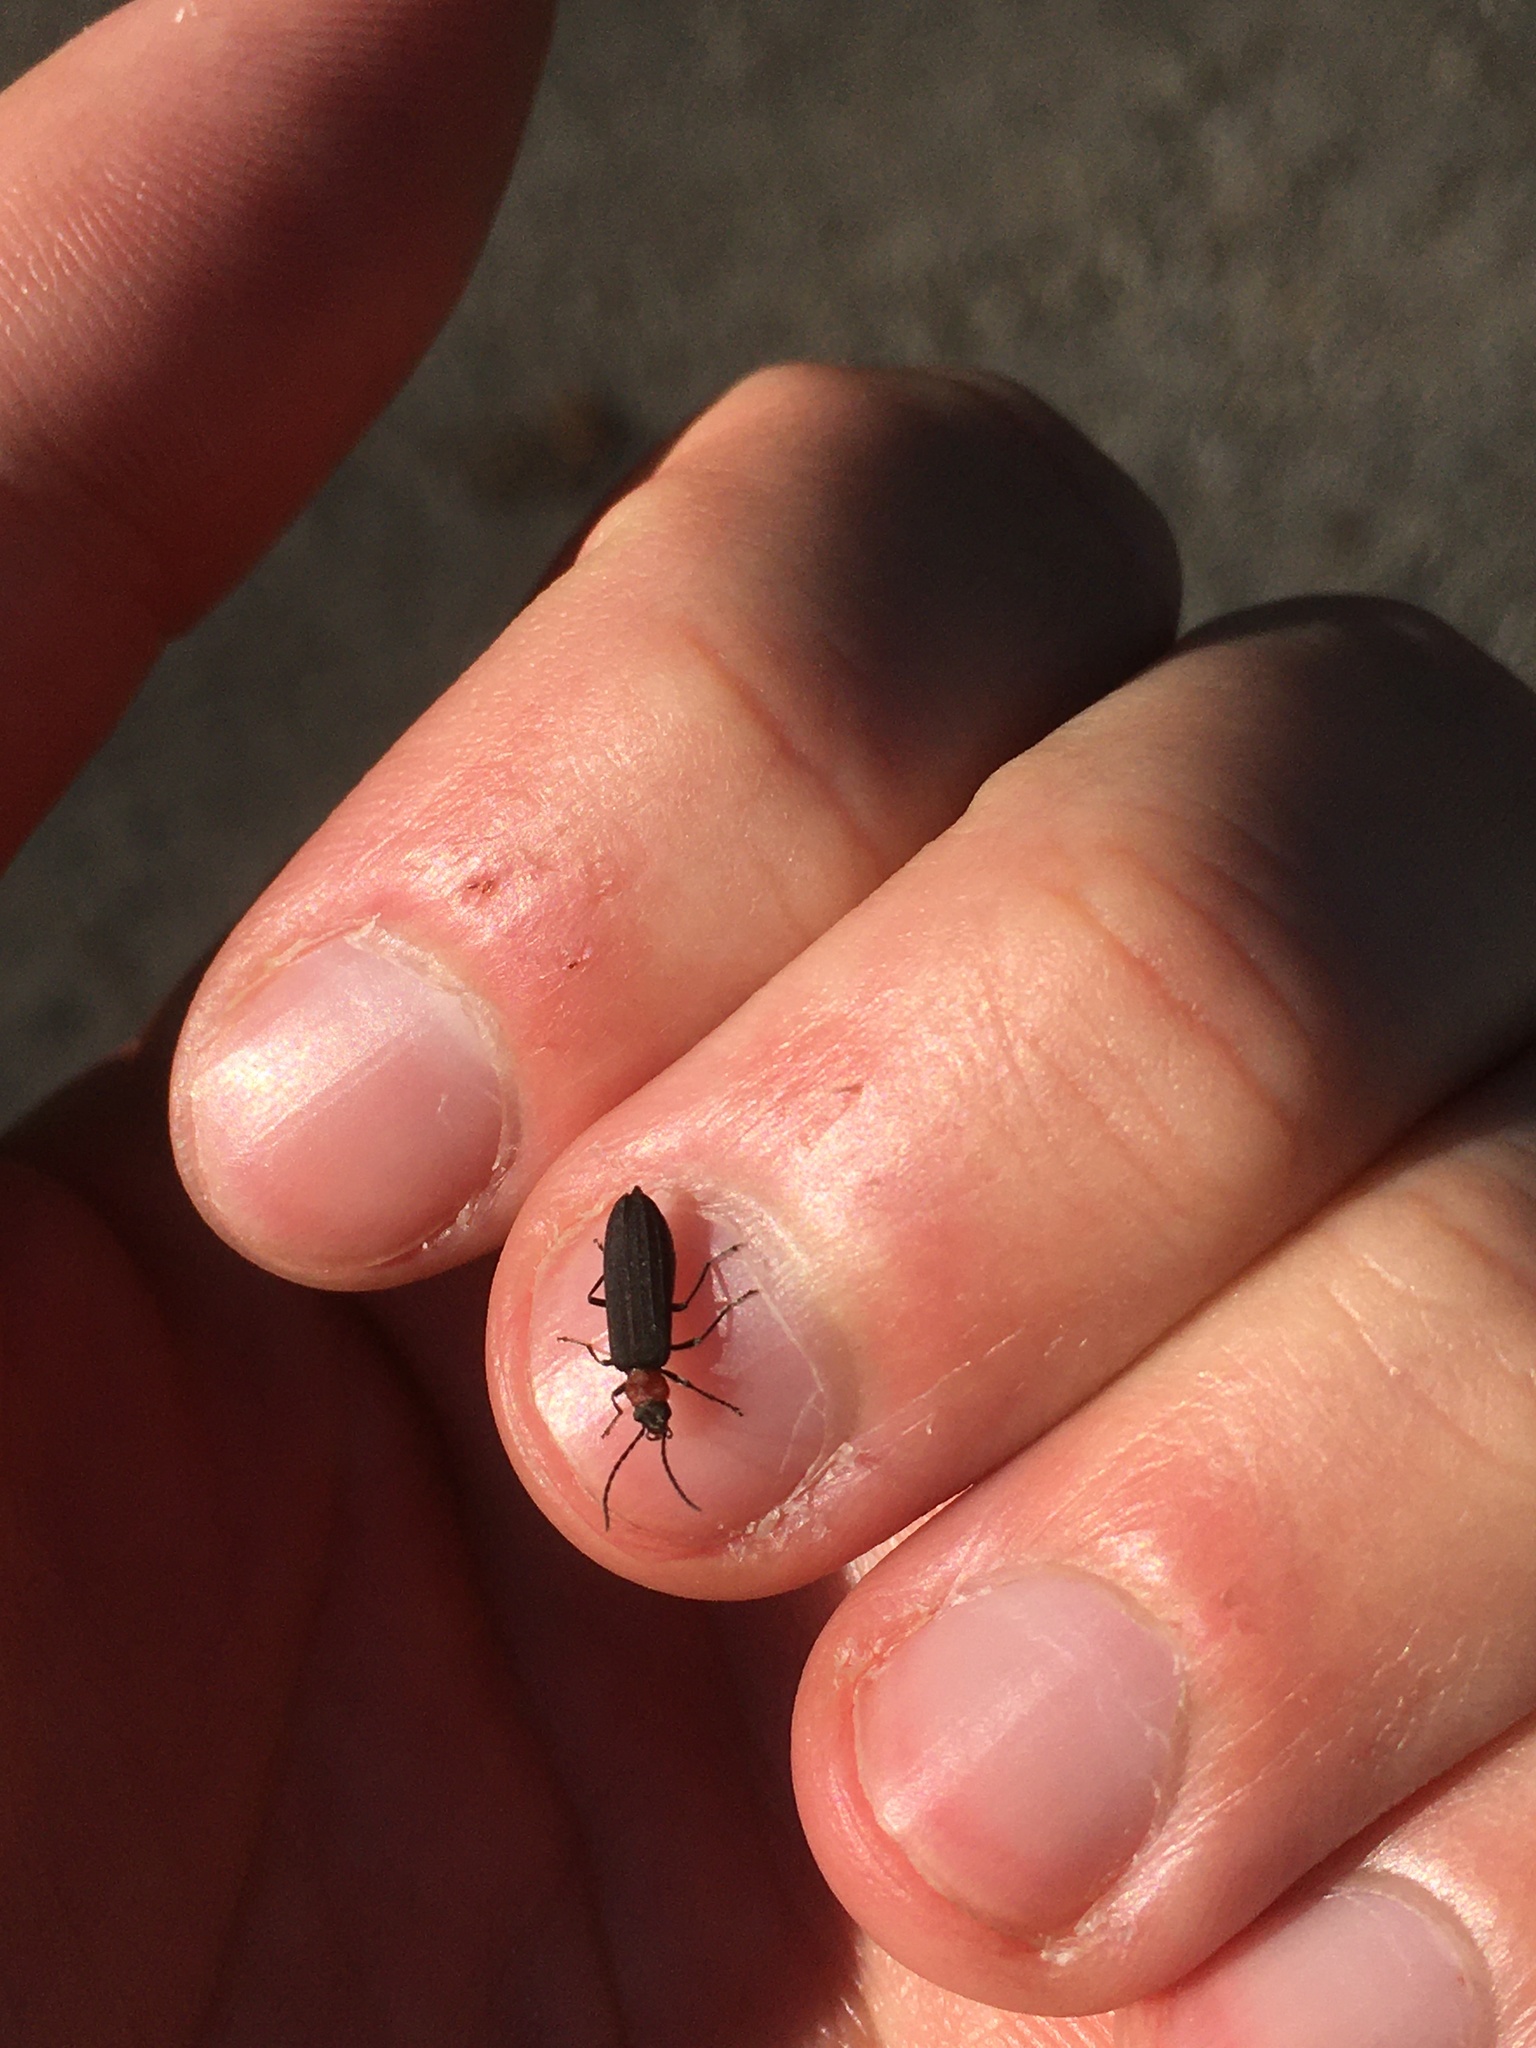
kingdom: Animalia
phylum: Arthropoda
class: Insecta
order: Coleoptera
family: Oedemeridae
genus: Ischnomera
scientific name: Ischnomera
